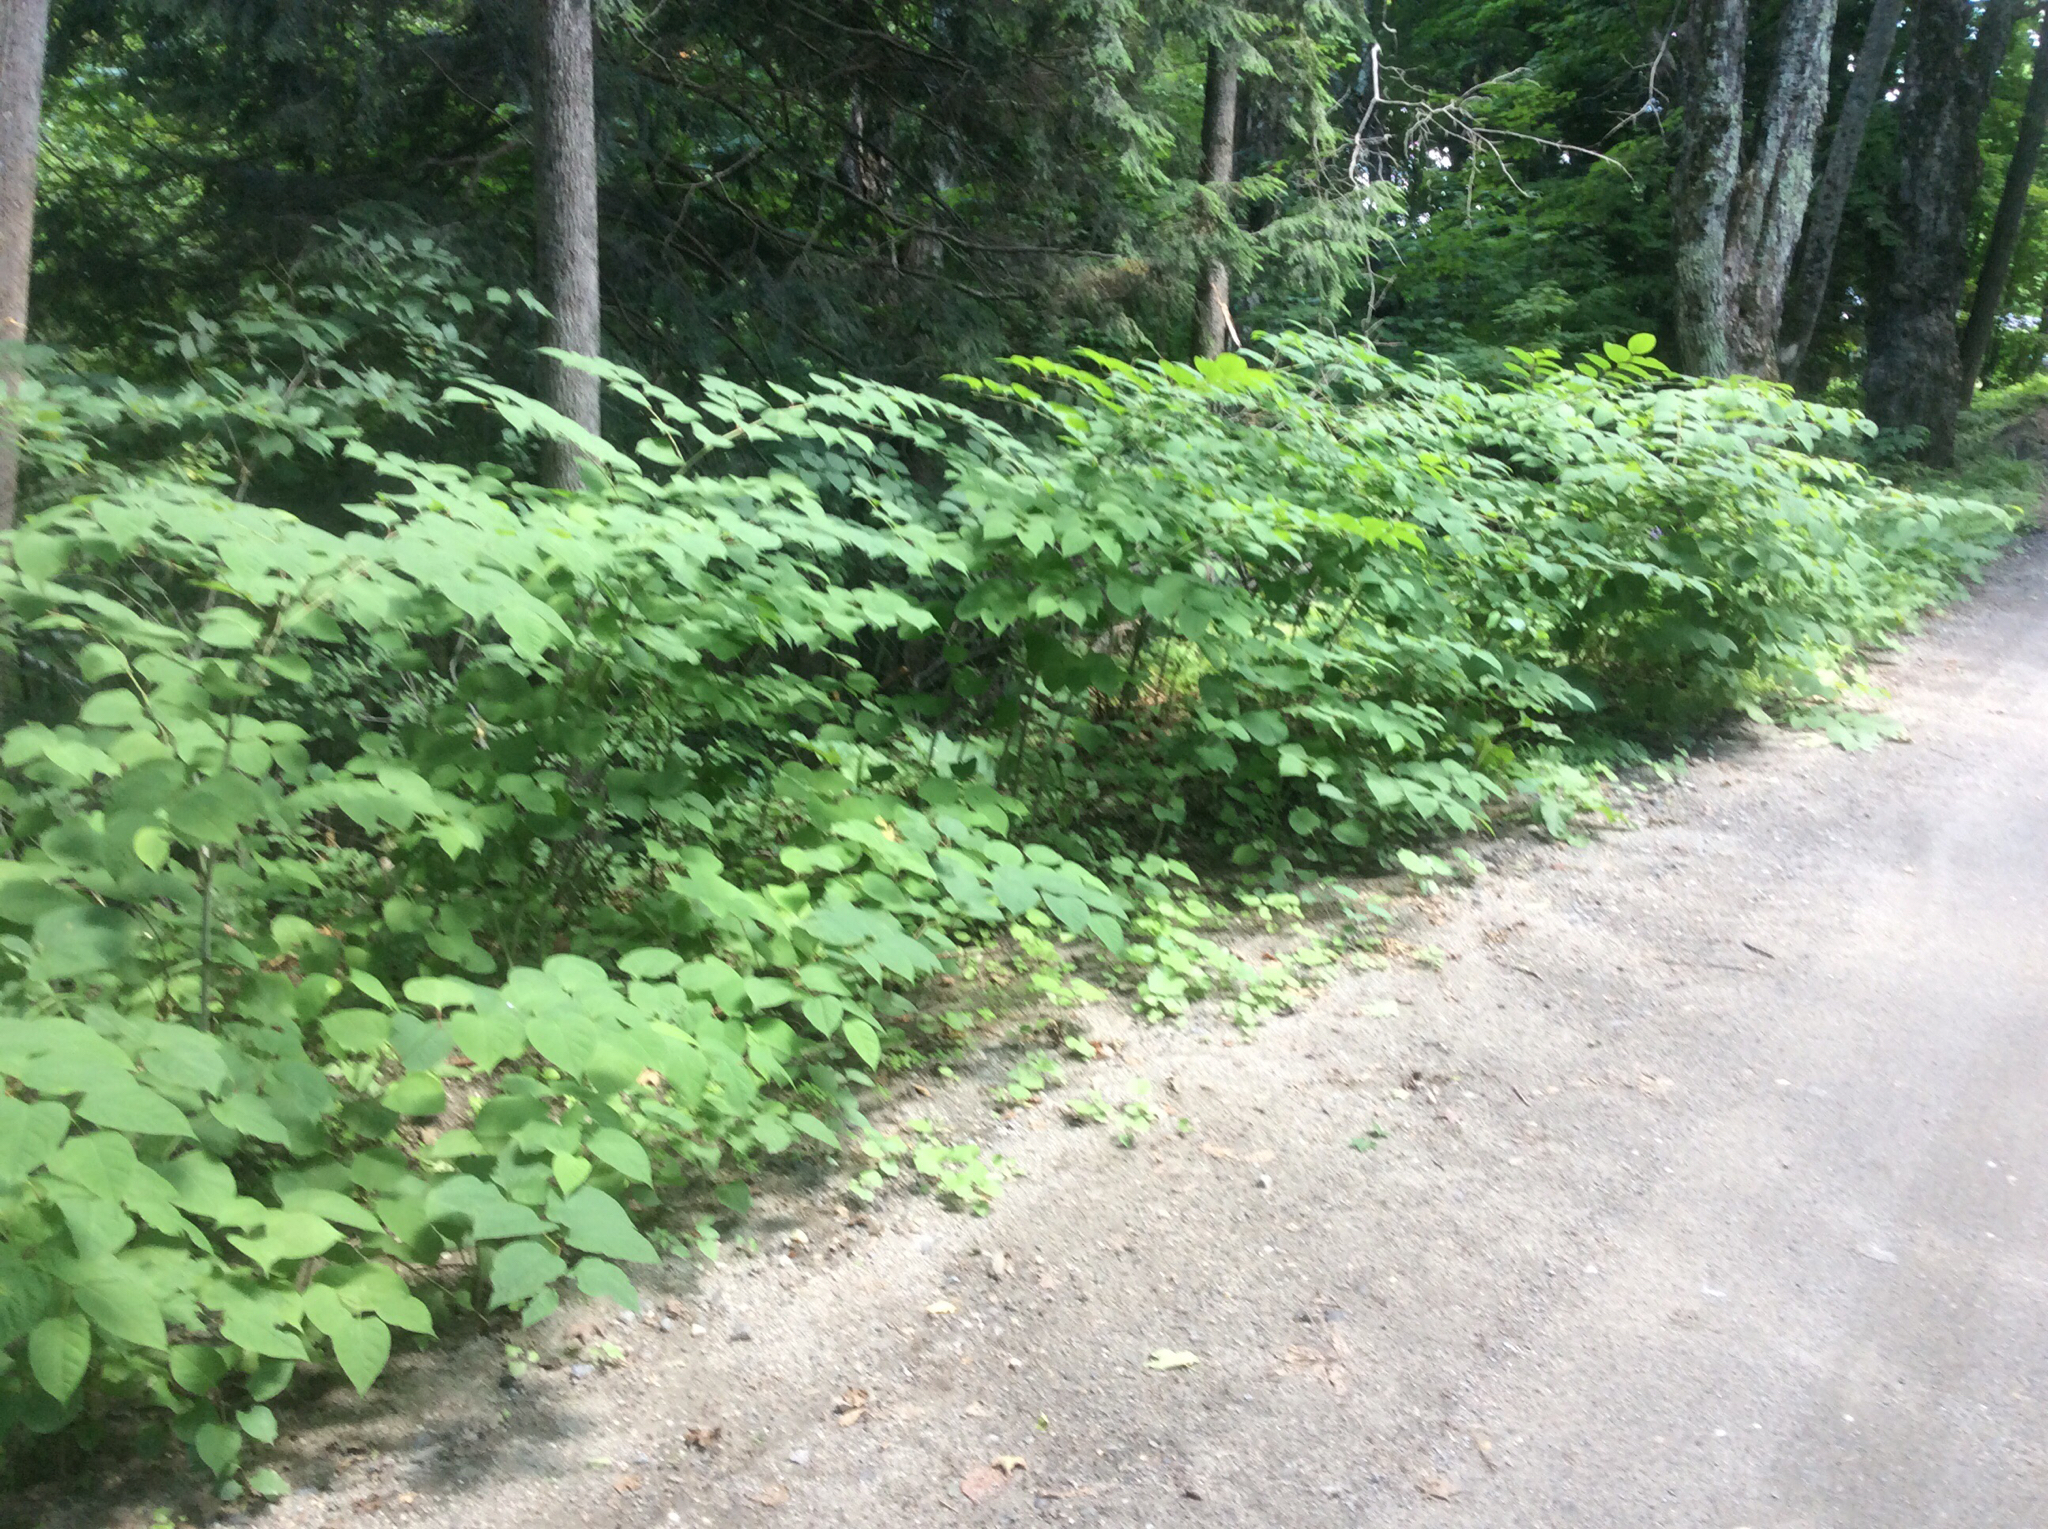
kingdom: Plantae
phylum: Tracheophyta
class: Magnoliopsida
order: Caryophyllales
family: Polygonaceae
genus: Reynoutria
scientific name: Reynoutria japonica
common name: Japanese knotweed
